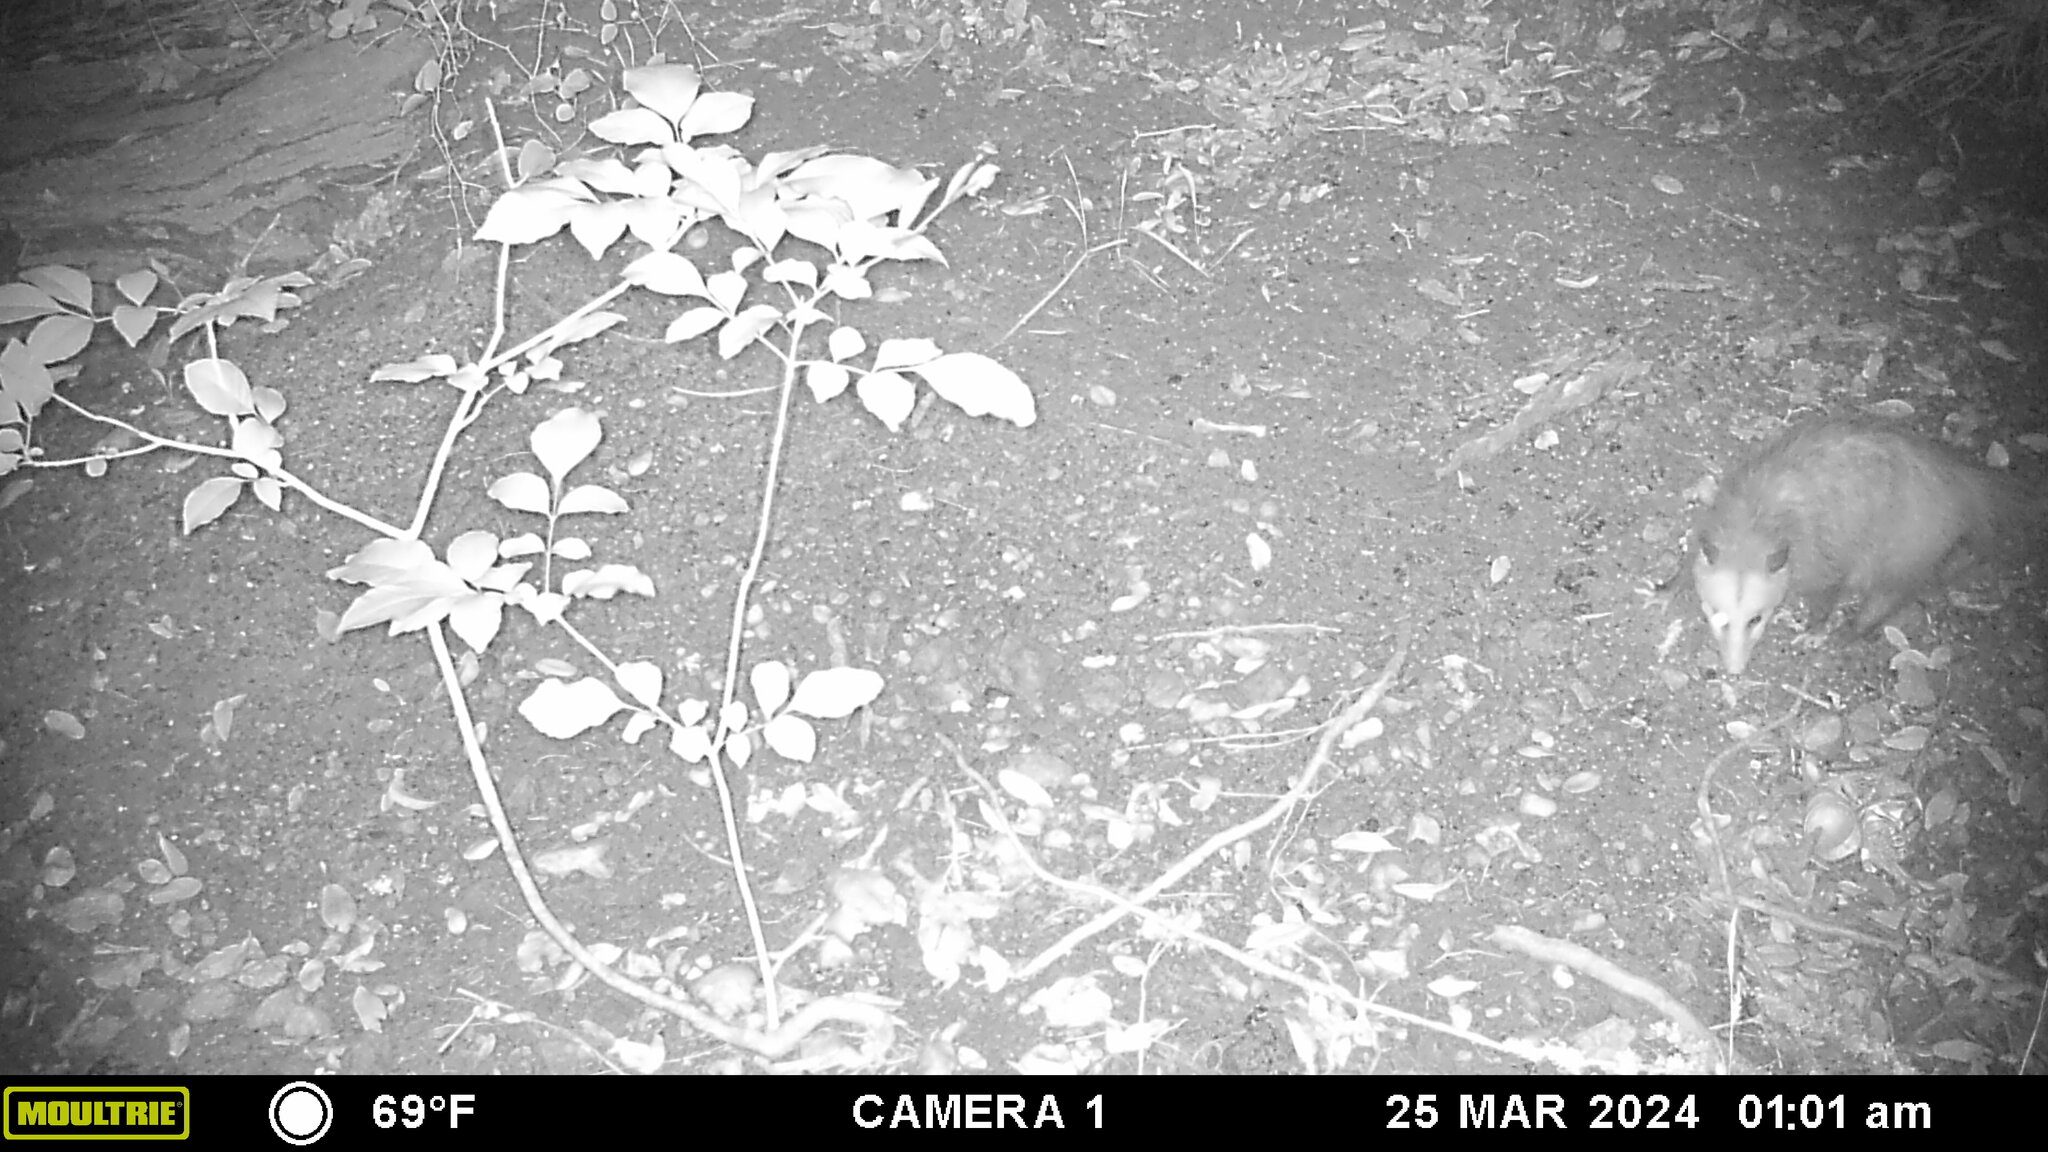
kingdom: Animalia
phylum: Chordata
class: Mammalia
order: Didelphimorphia
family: Didelphidae
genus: Didelphis
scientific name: Didelphis virginiana
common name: Virginia opossum
